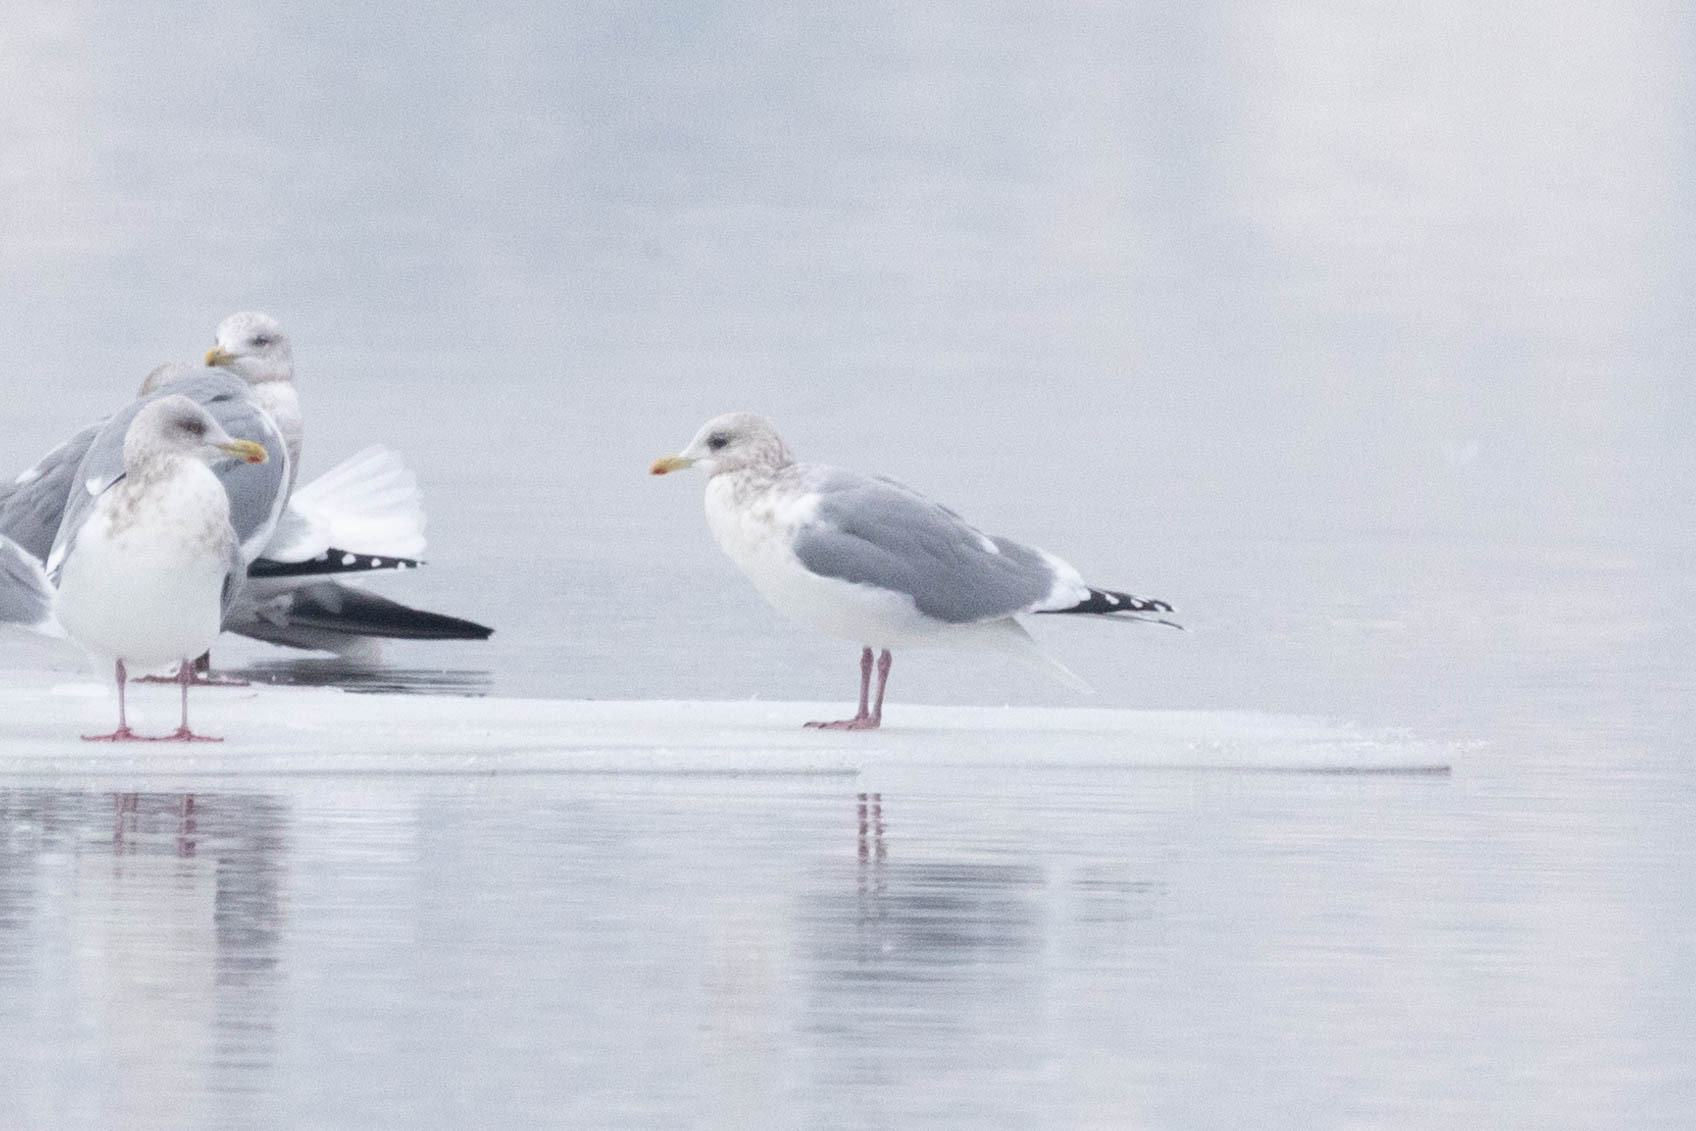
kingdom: Animalia
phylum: Chordata
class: Aves
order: Charadriiformes
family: Laridae
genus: Larus
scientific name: Larus glaucoides
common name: Iceland gull
